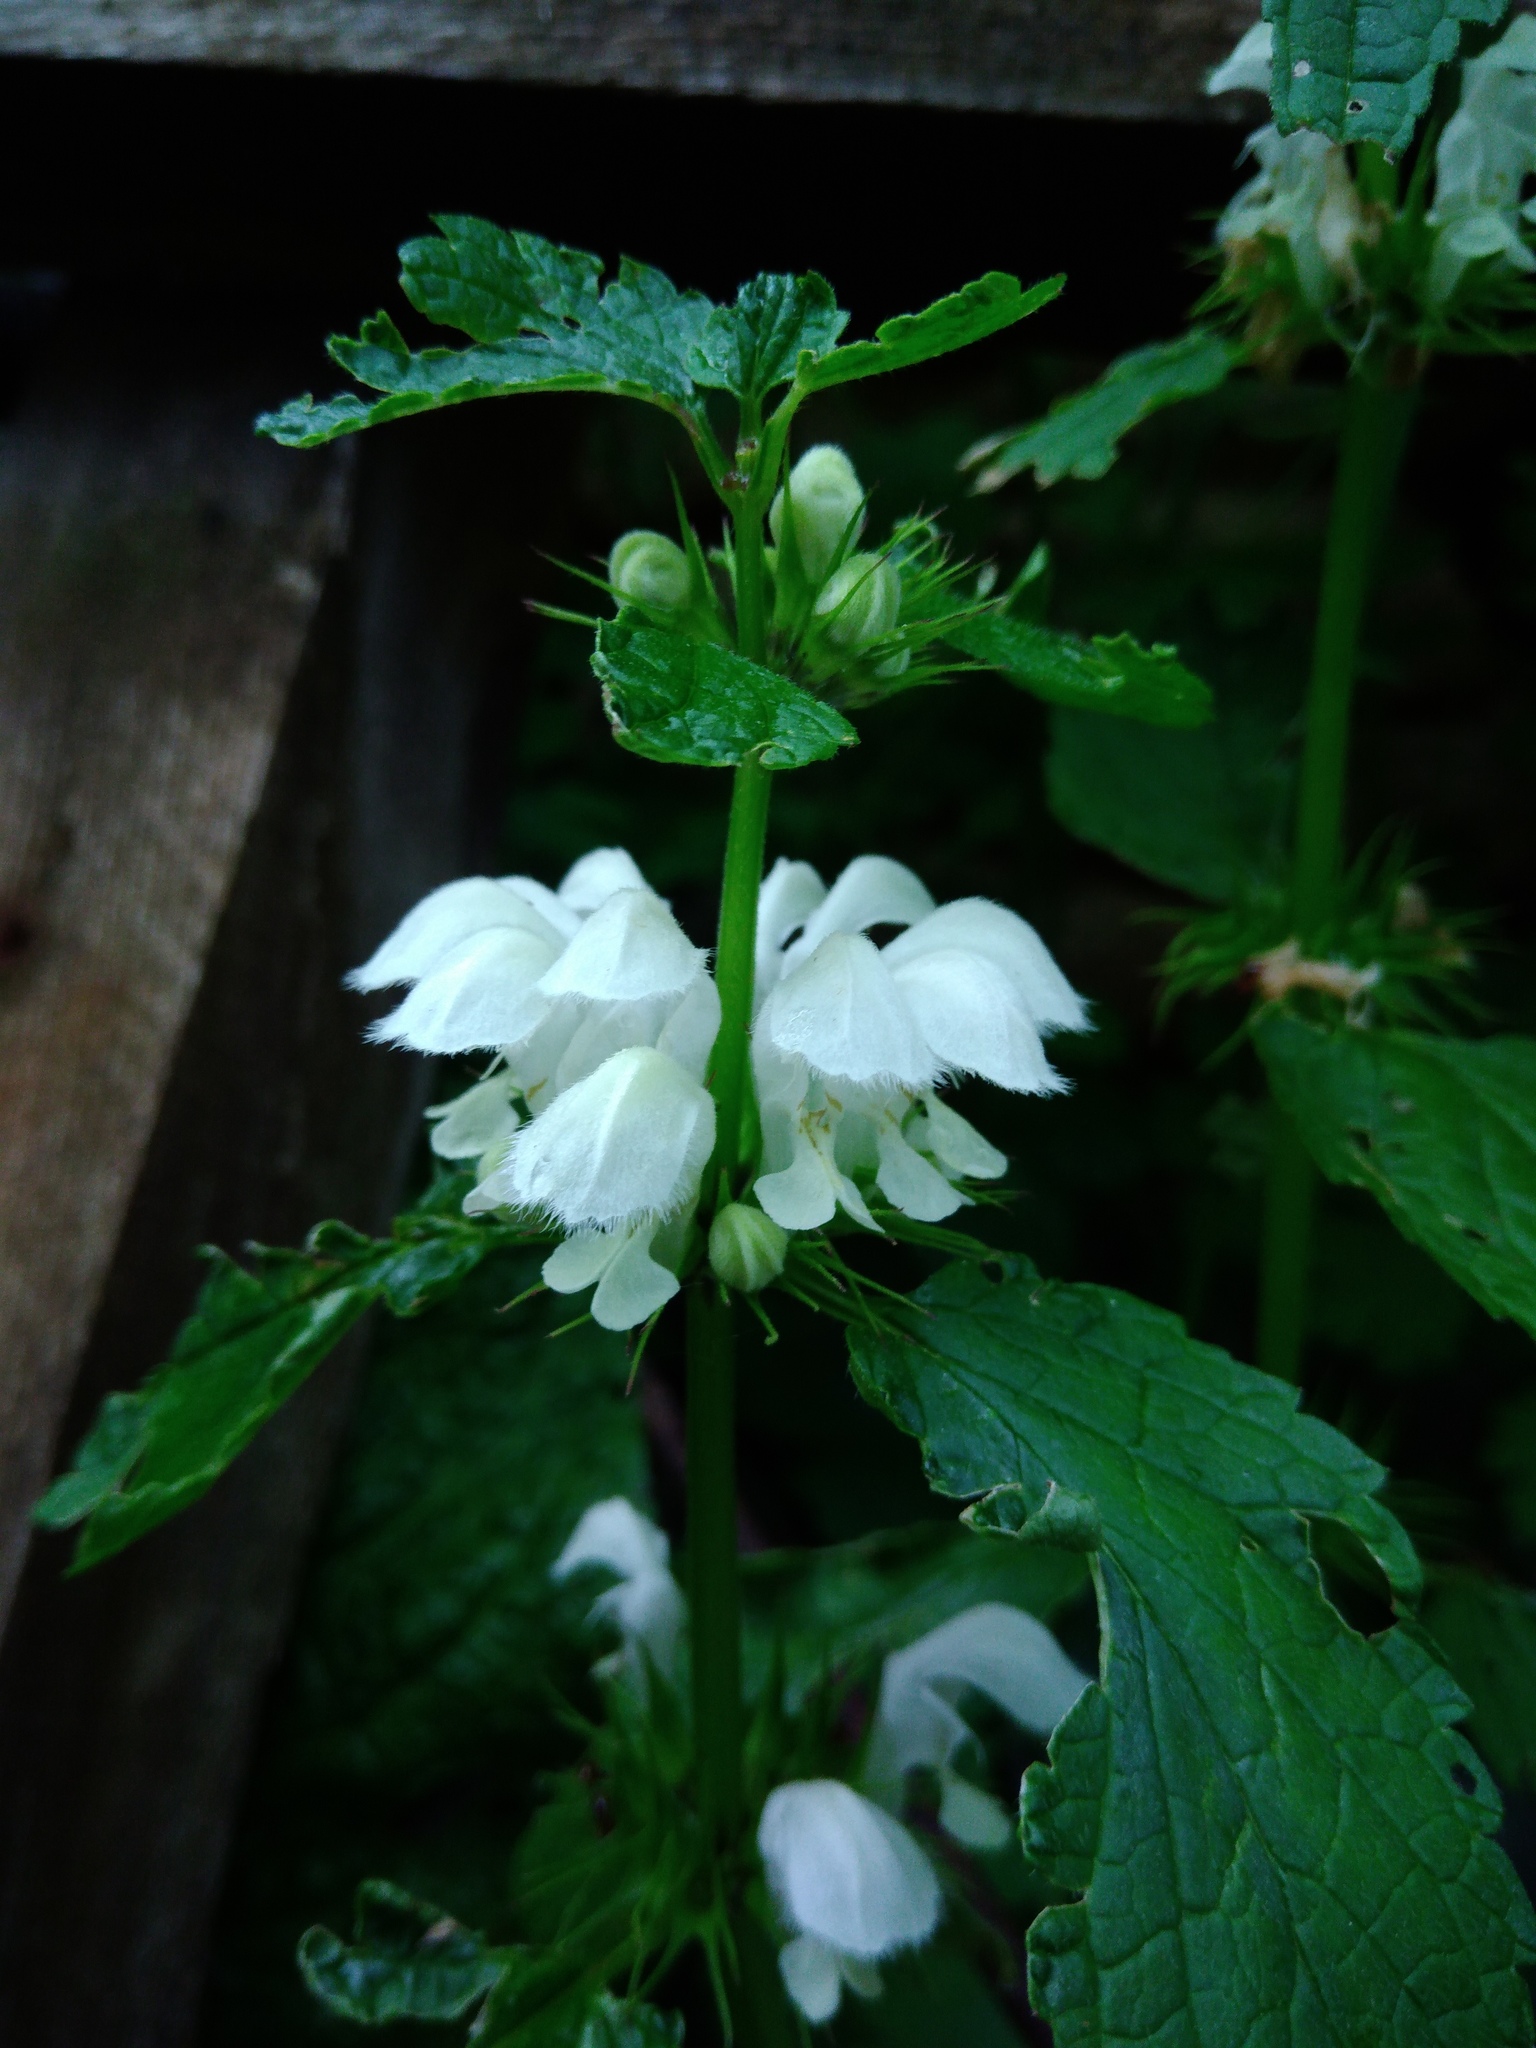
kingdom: Plantae
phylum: Tracheophyta
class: Magnoliopsida
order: Lamiales
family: Lamiaceae
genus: Lamium
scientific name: Lamium album
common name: White dead-nettle
